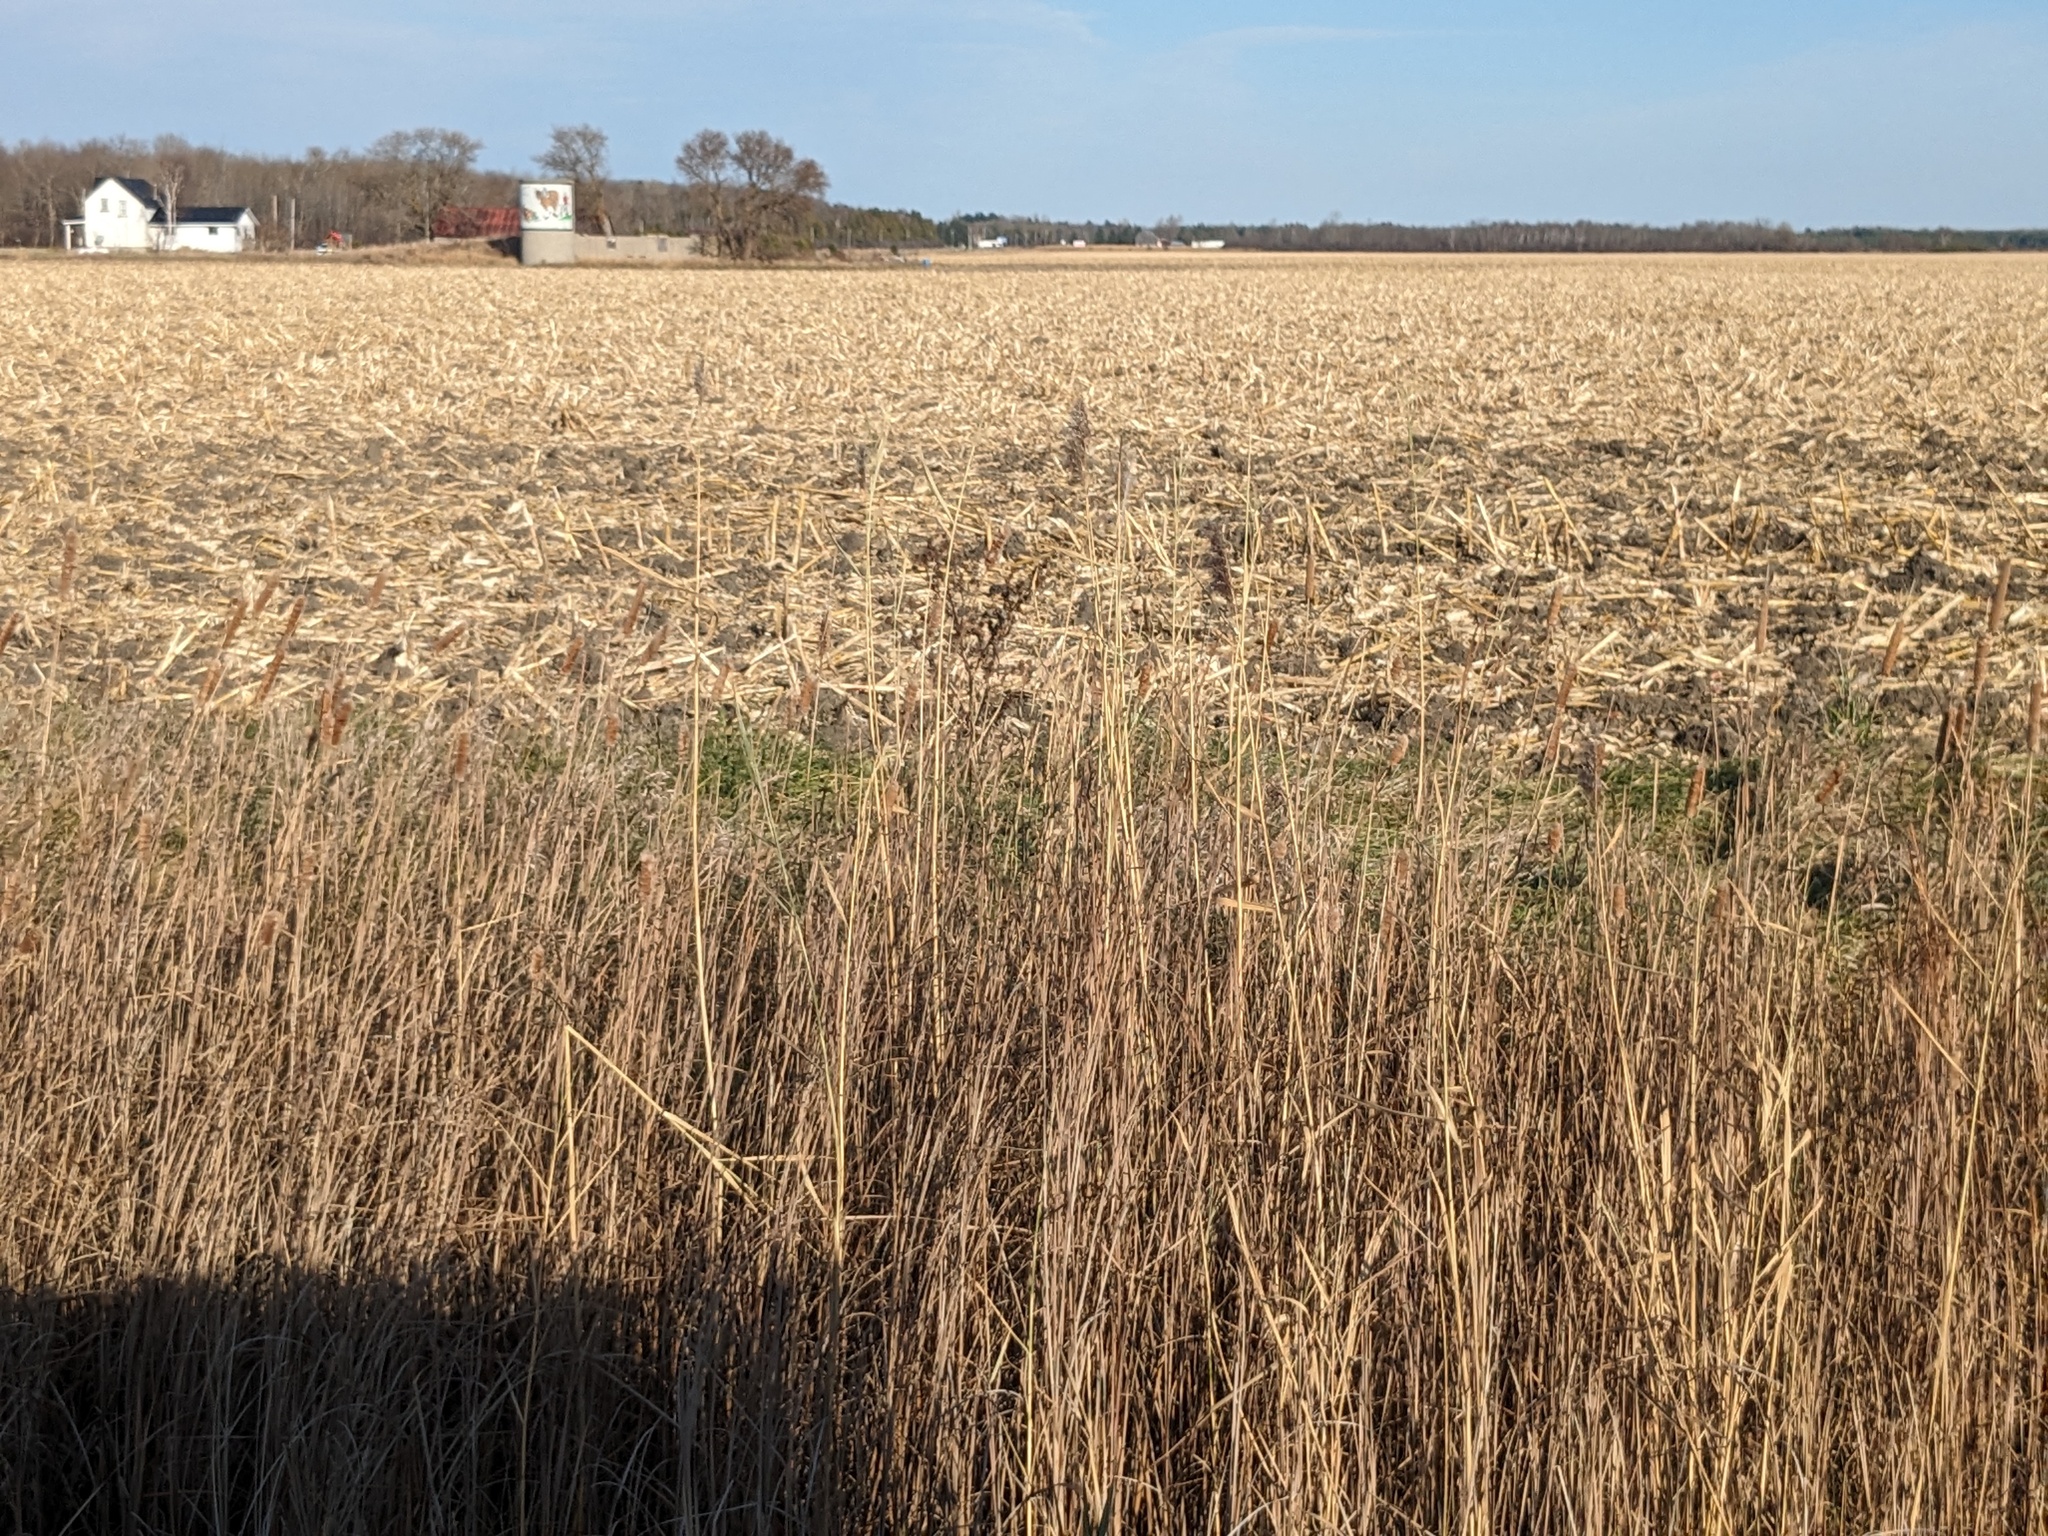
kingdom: Plantae
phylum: Tracheophyta
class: Liliopsida
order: Poales
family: Poaceae
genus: Phragmites
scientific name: Phragmites australis
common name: Common reed
